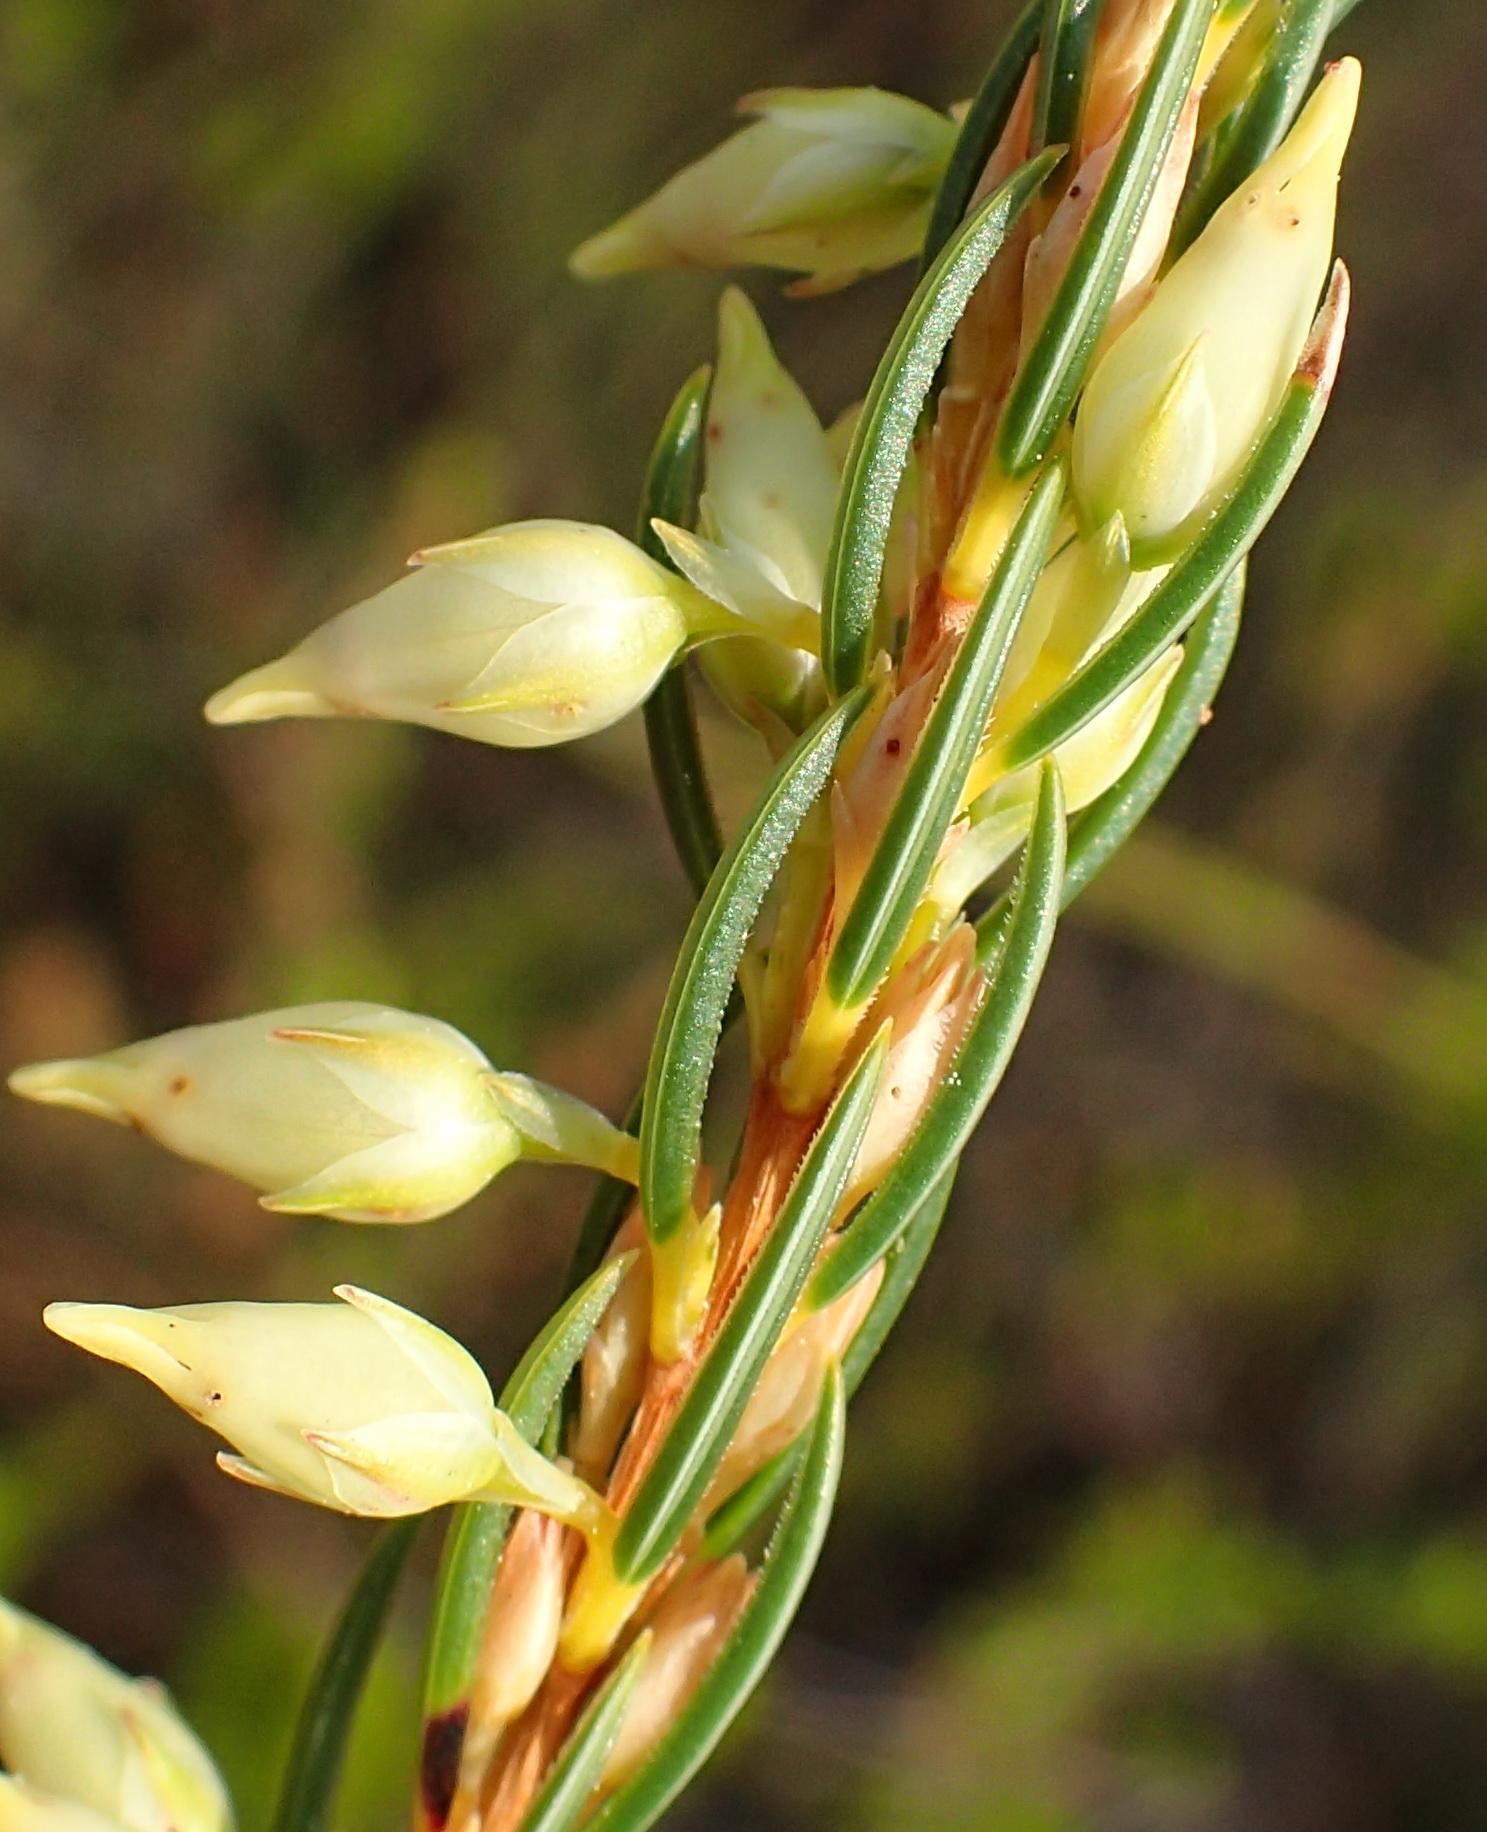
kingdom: Plantae
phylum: Tracheophyta
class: Magnoliopsida
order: Ericales
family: Ericaceae
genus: Erica
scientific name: Erica albens
